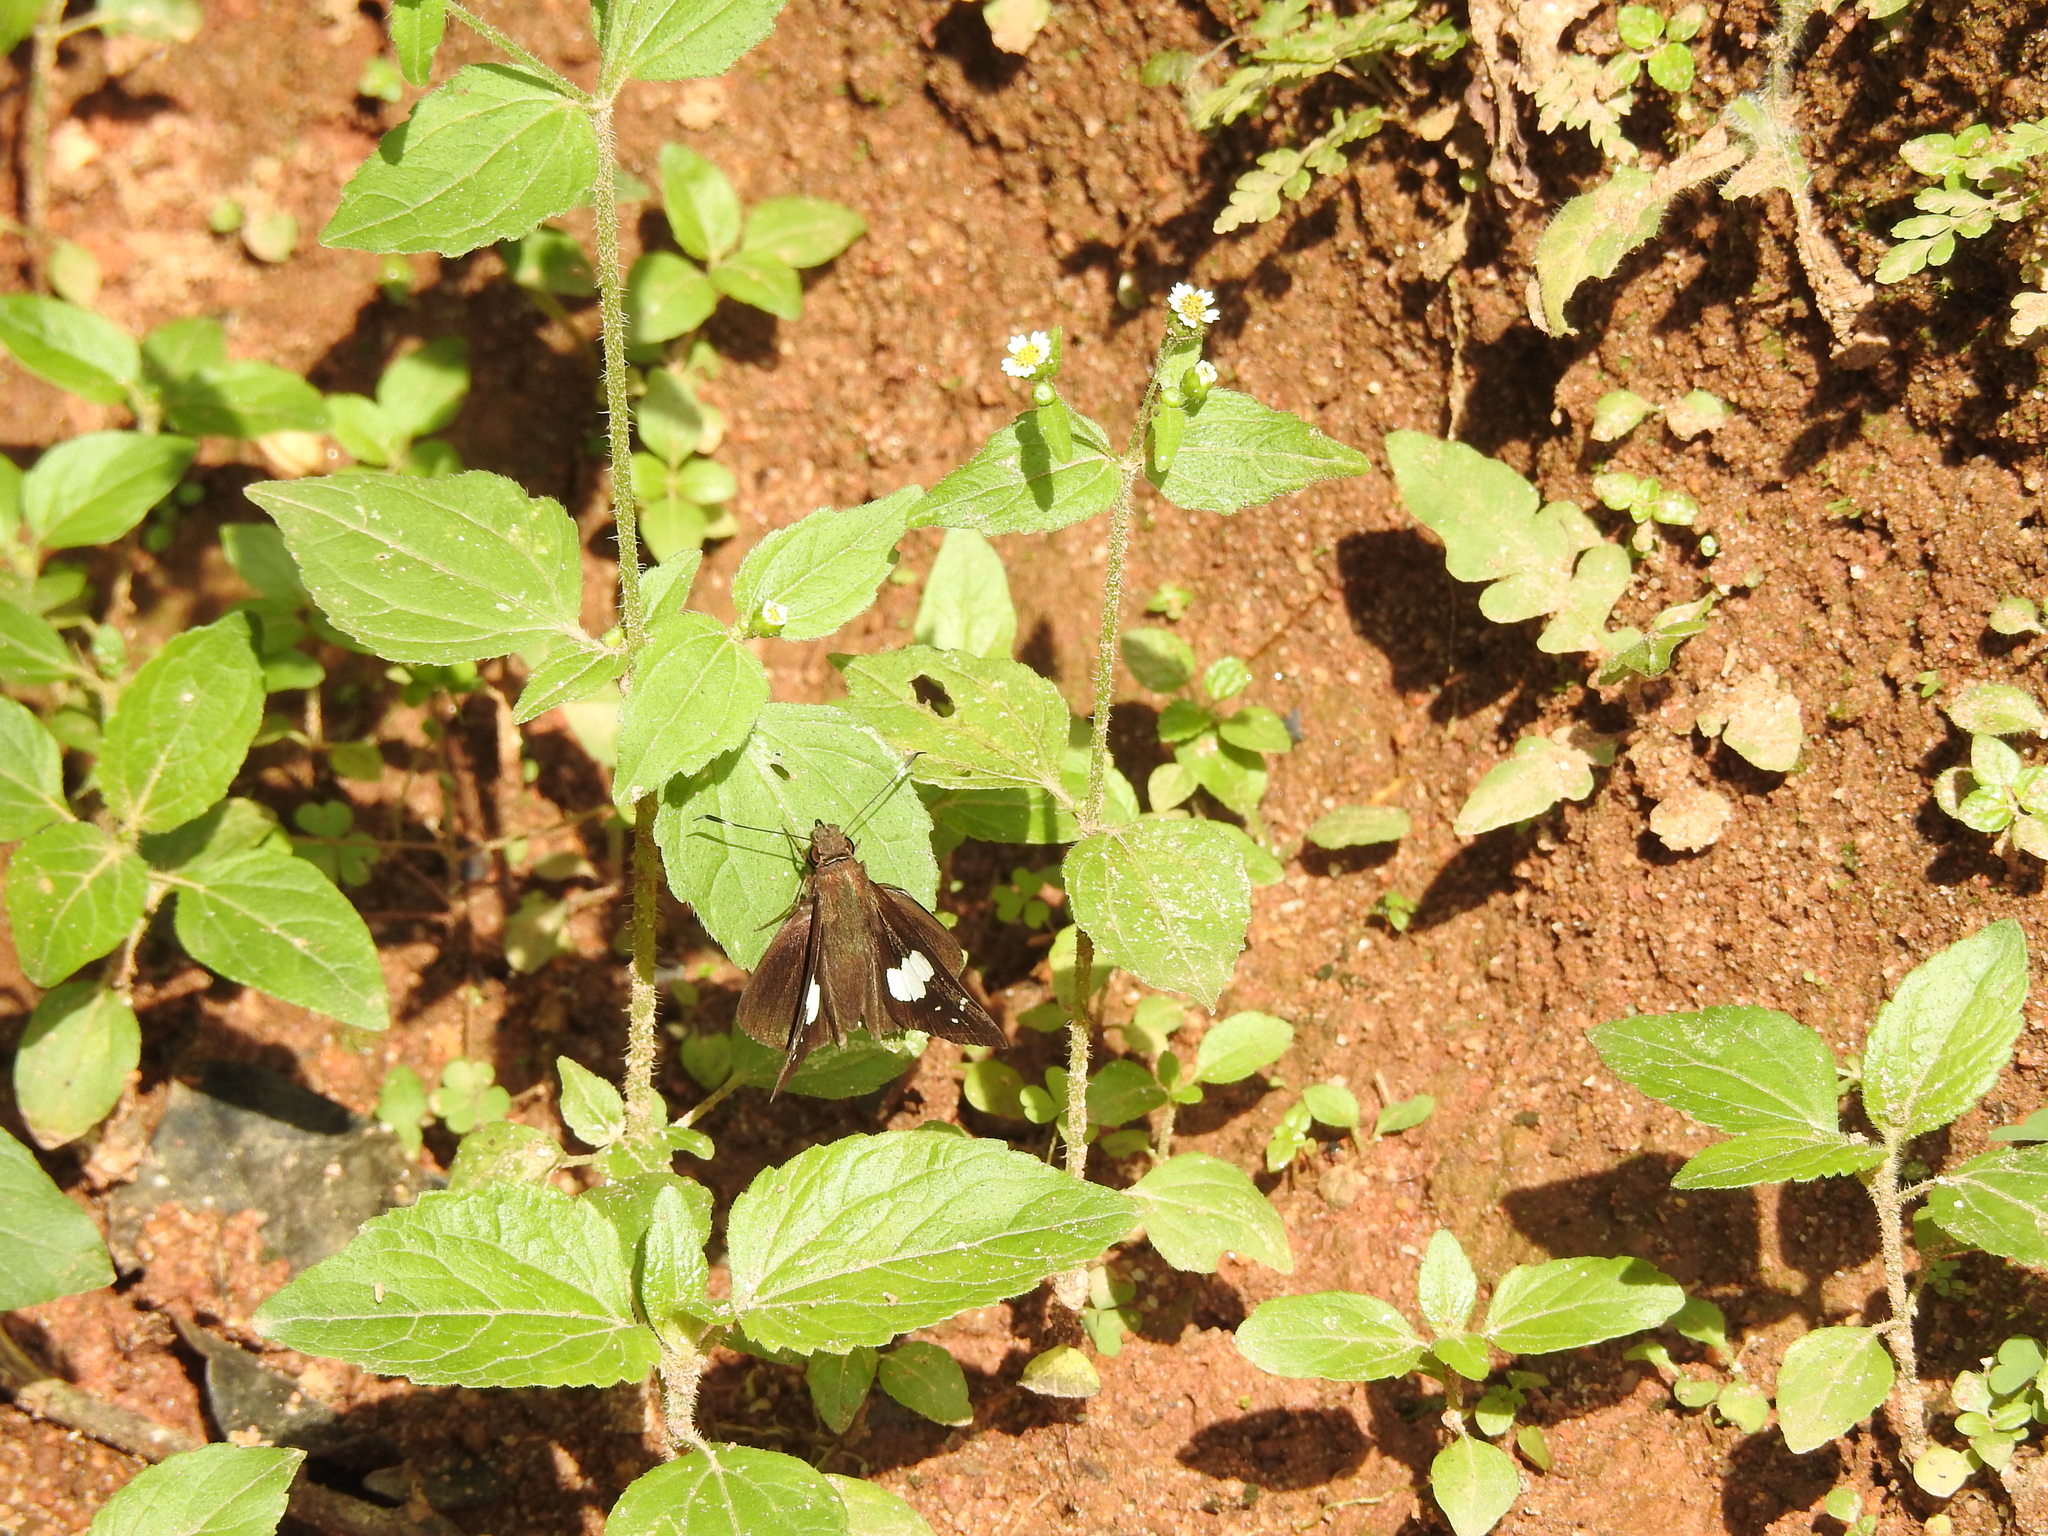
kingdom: Animalia
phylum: Arthropoda
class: Insecta
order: Lepidoptera
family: Hesperiidae
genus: Notocrypta
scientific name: Notocrypta curvifascia
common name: Restricted demon
